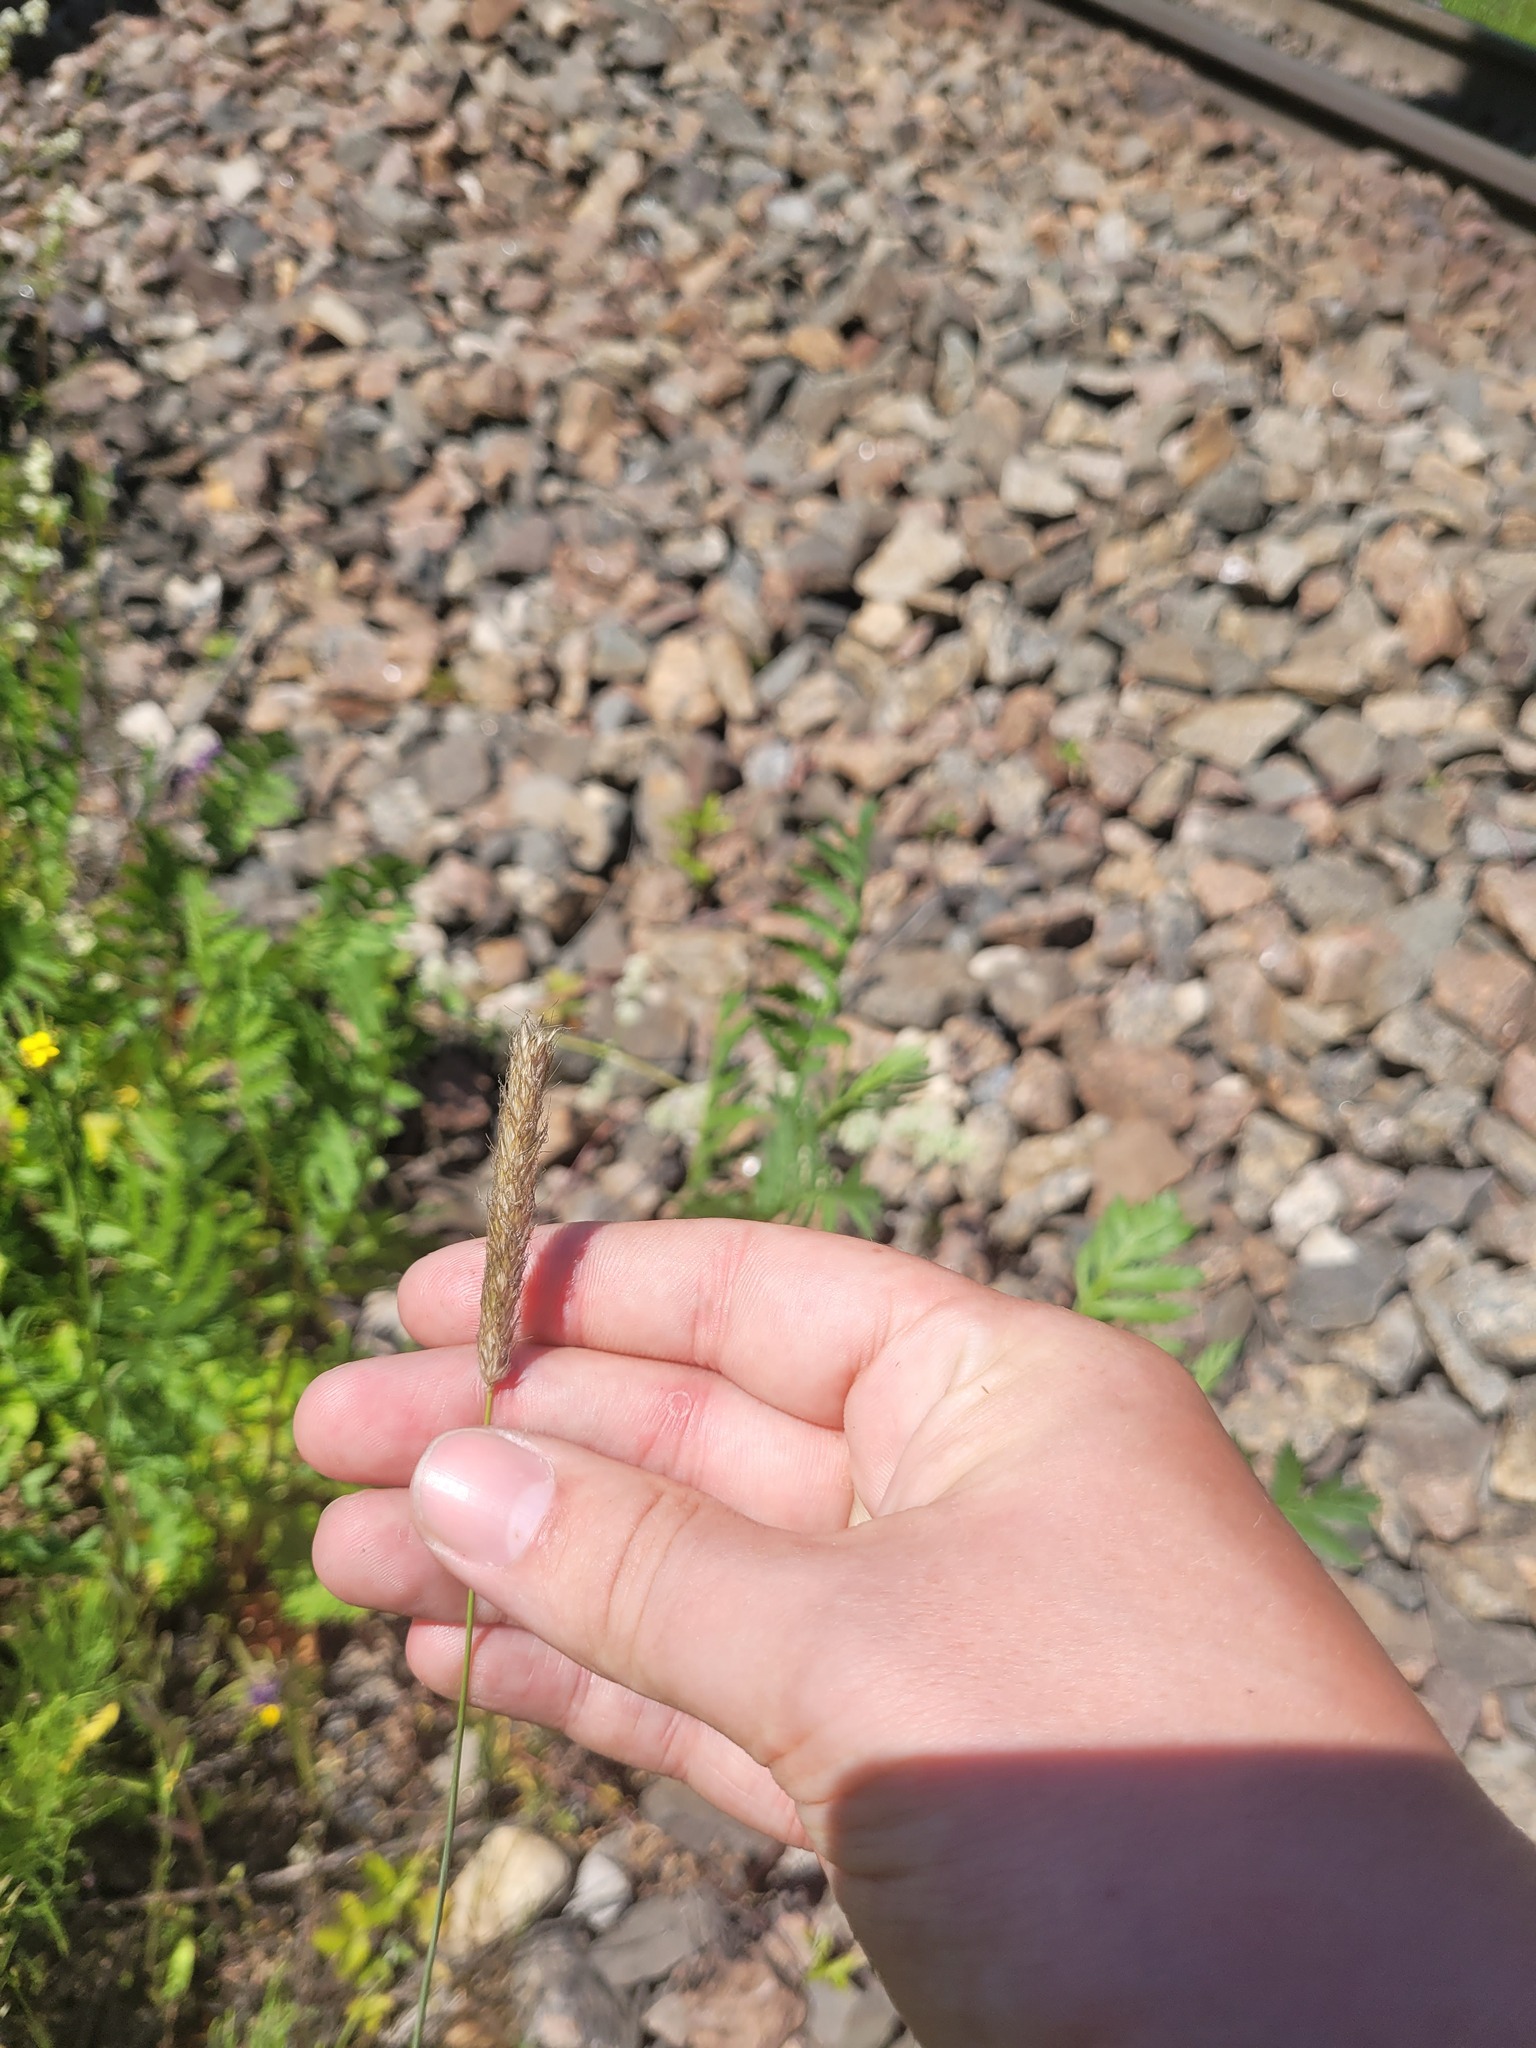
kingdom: Plantae
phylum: Tracheophyta
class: Liliopsida
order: Poales
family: Poaceae
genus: Alopecurus
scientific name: Alopecurus pratensis
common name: Meadow foxtail
